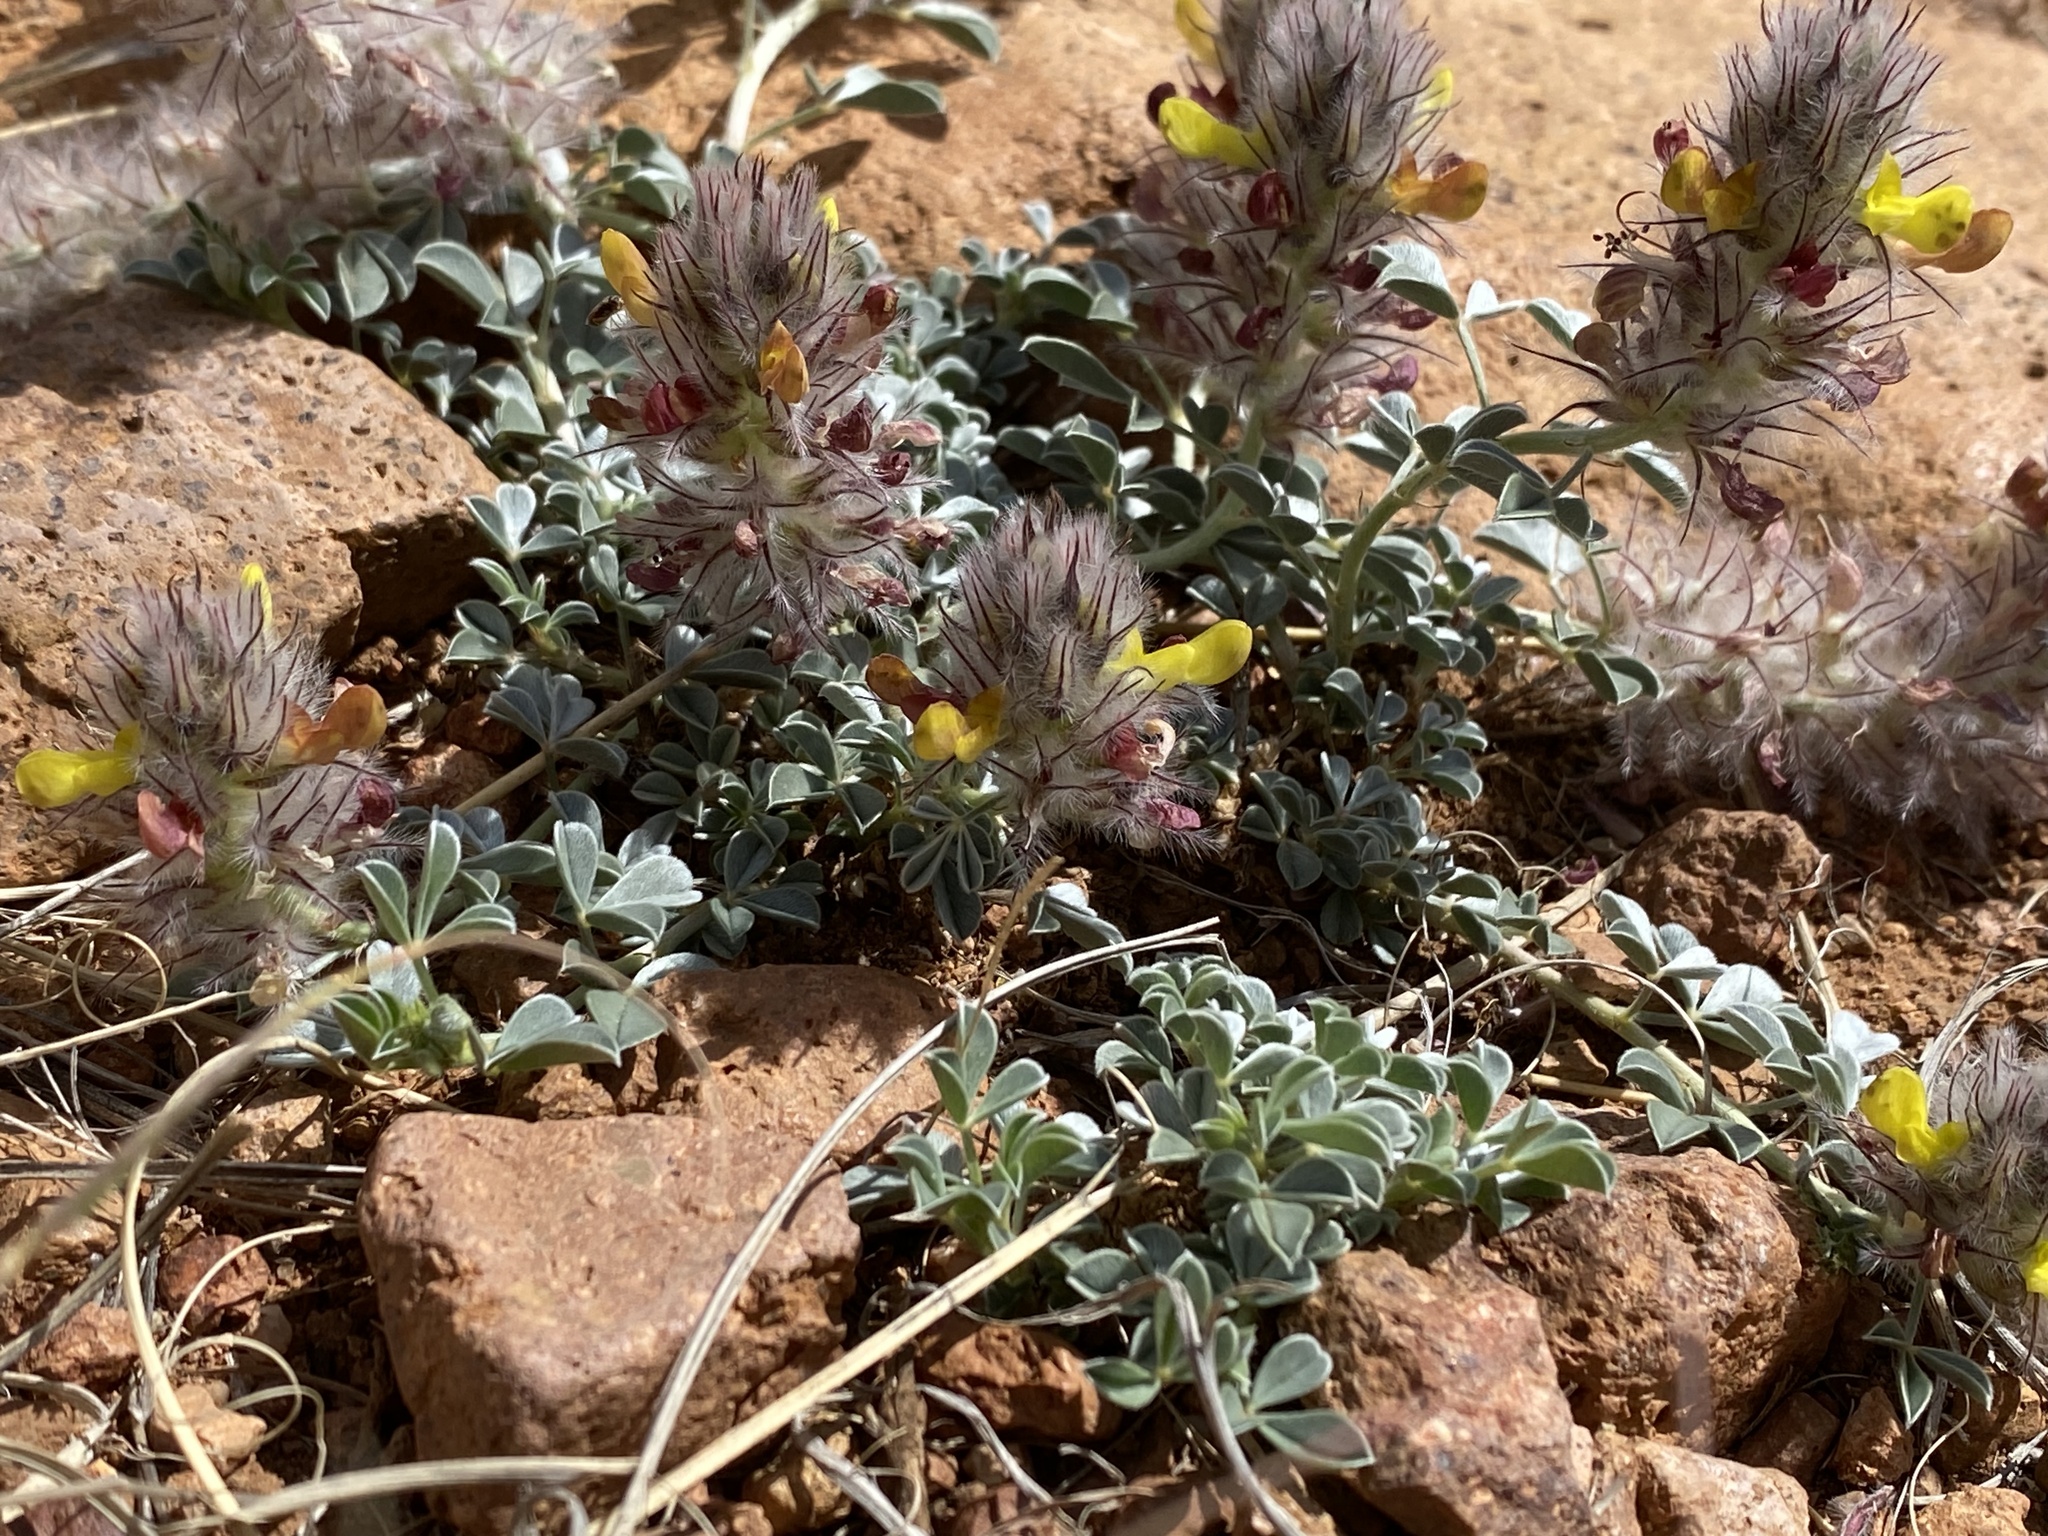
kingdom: Plantae
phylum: Tracheophyta
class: Magnoliopsida
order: Fabales
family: Fabaceae
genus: Dalea
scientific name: Dalea jamesii
